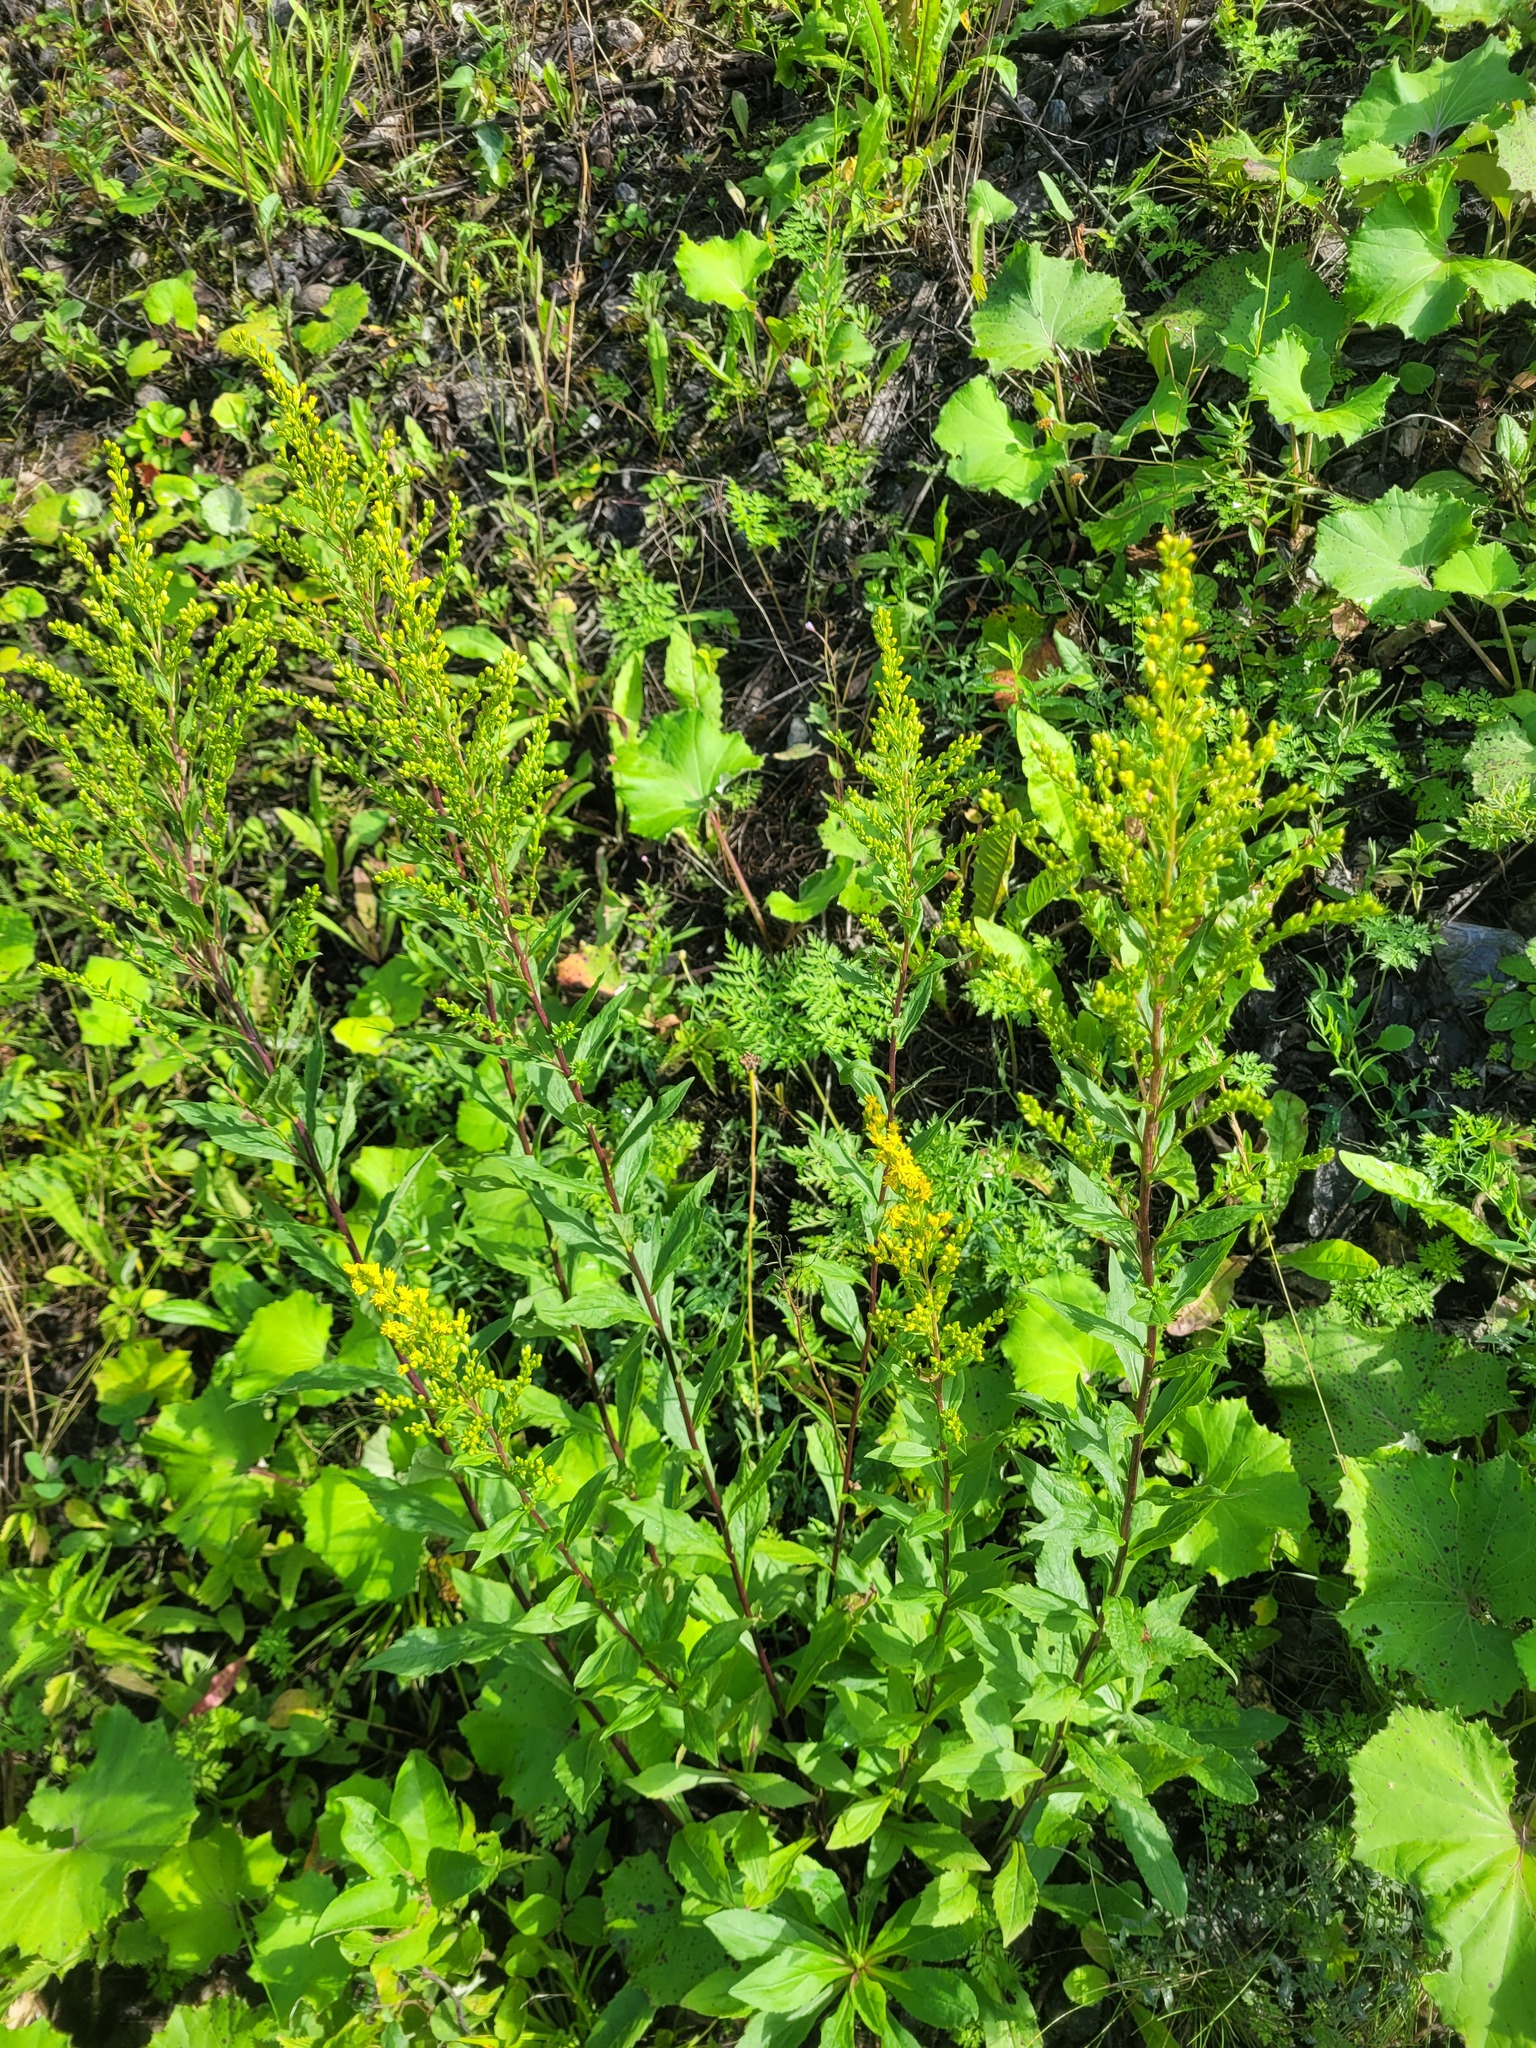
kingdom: Plantae
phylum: Tracheophyta
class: Magnoliopsida
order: Asterales
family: Asteraceae
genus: Solidago
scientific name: Solidago niederederi
